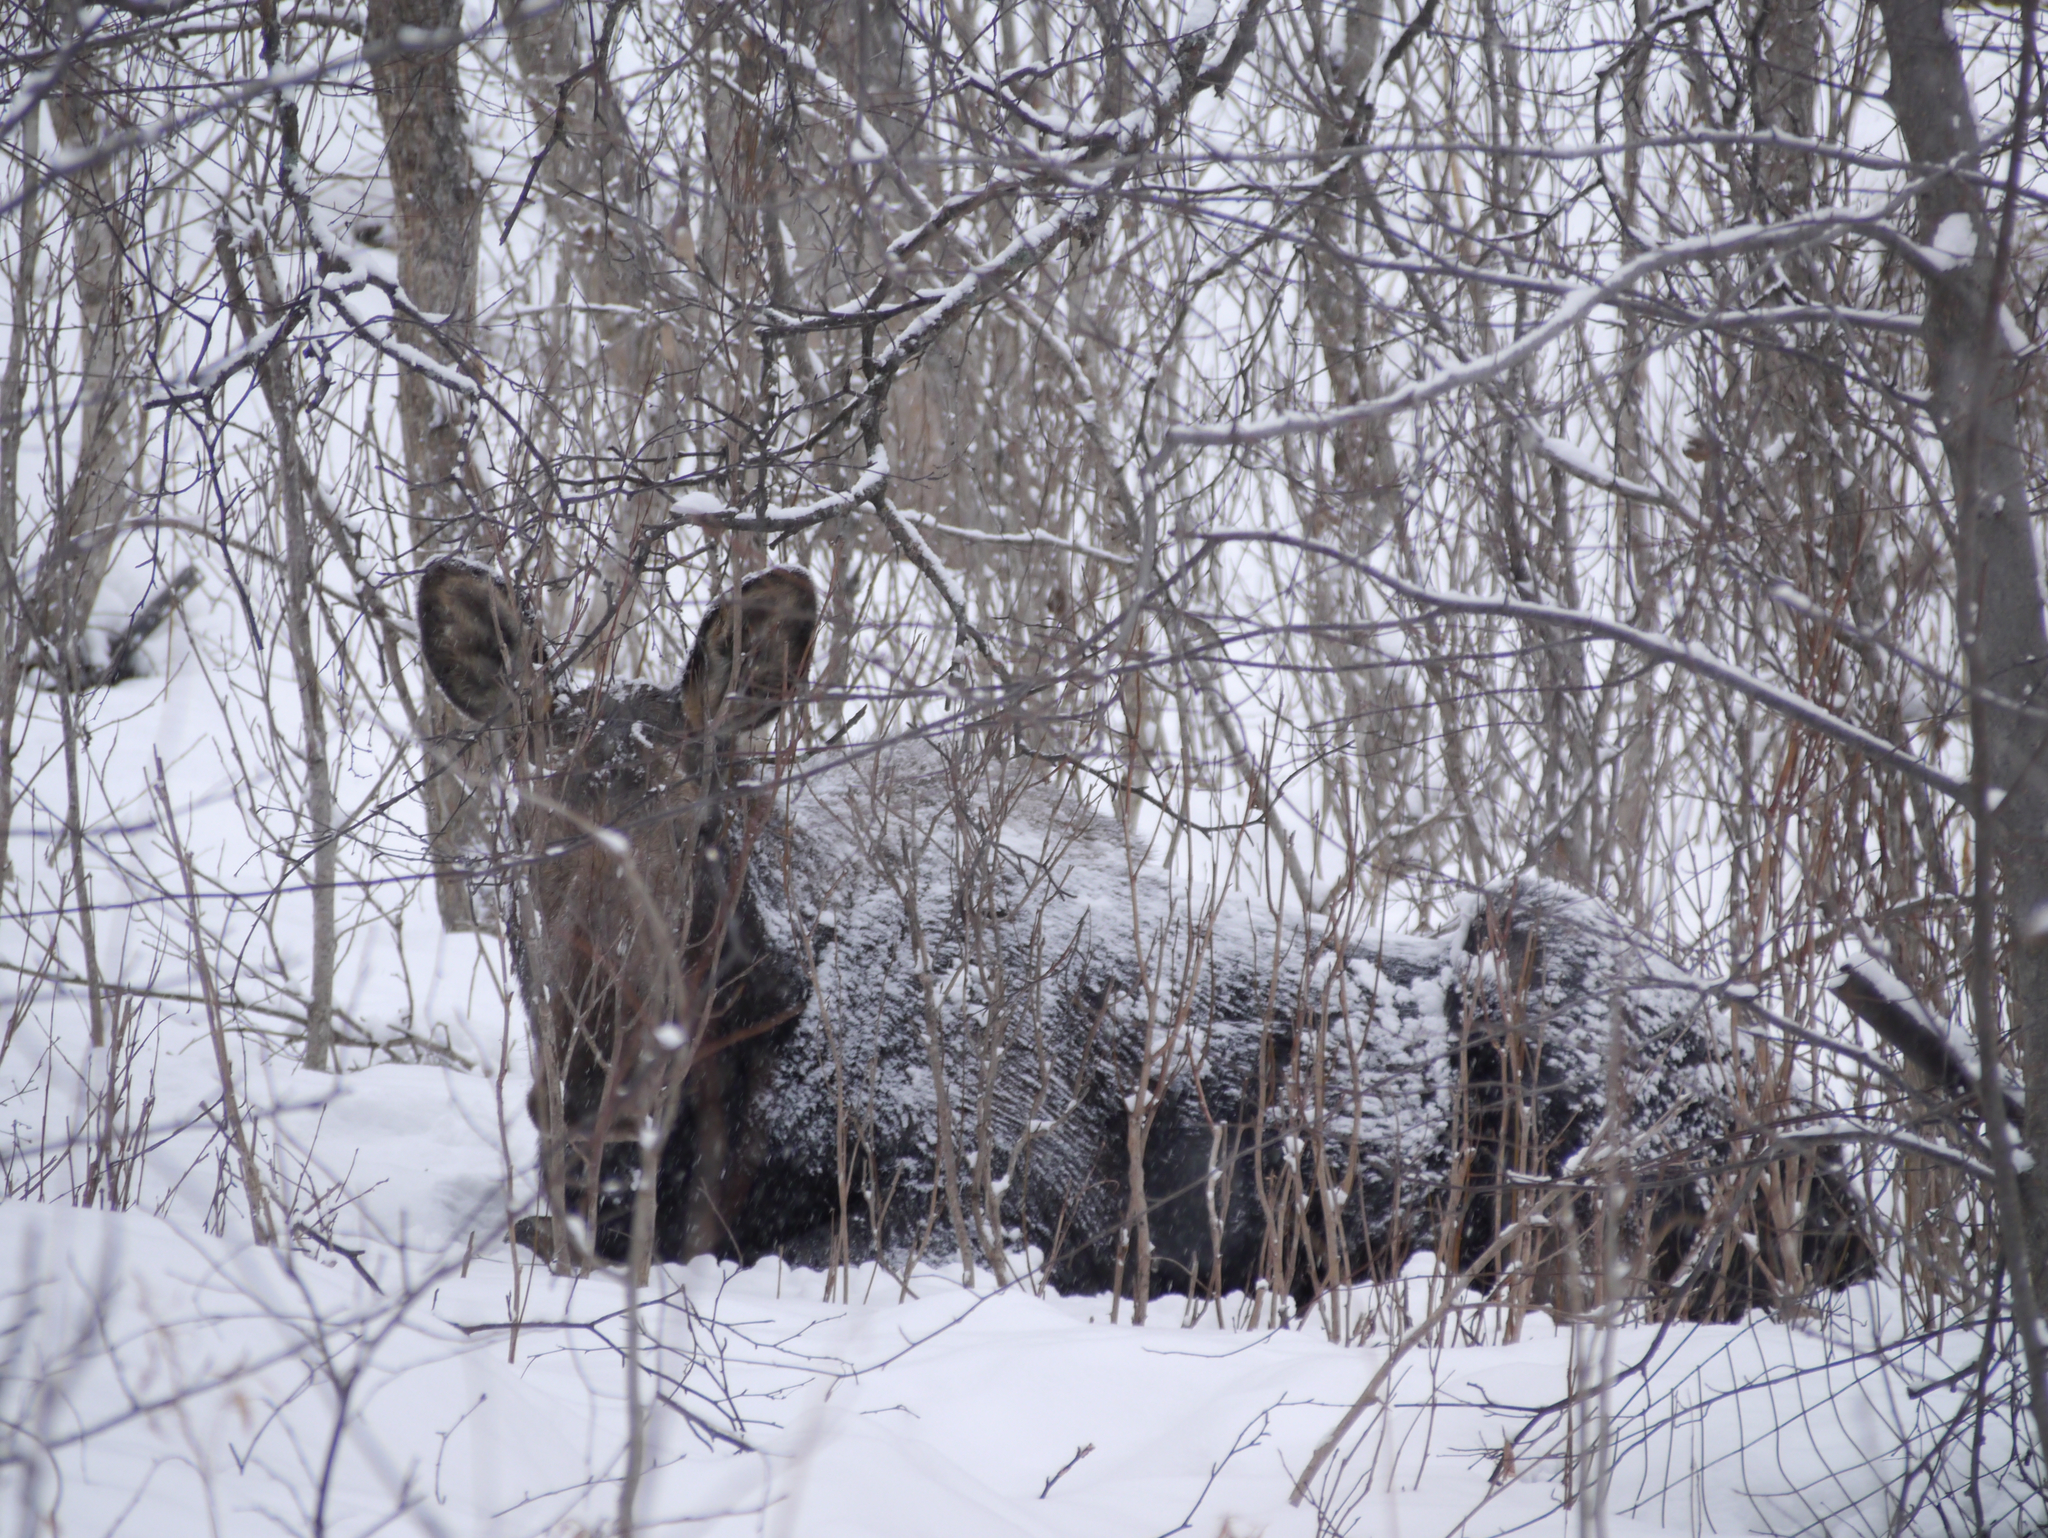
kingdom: Animalia
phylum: Chordata
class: Mammalia
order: Artiodactyla
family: Cervidae
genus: Alces
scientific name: Alces alces
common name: Moose
